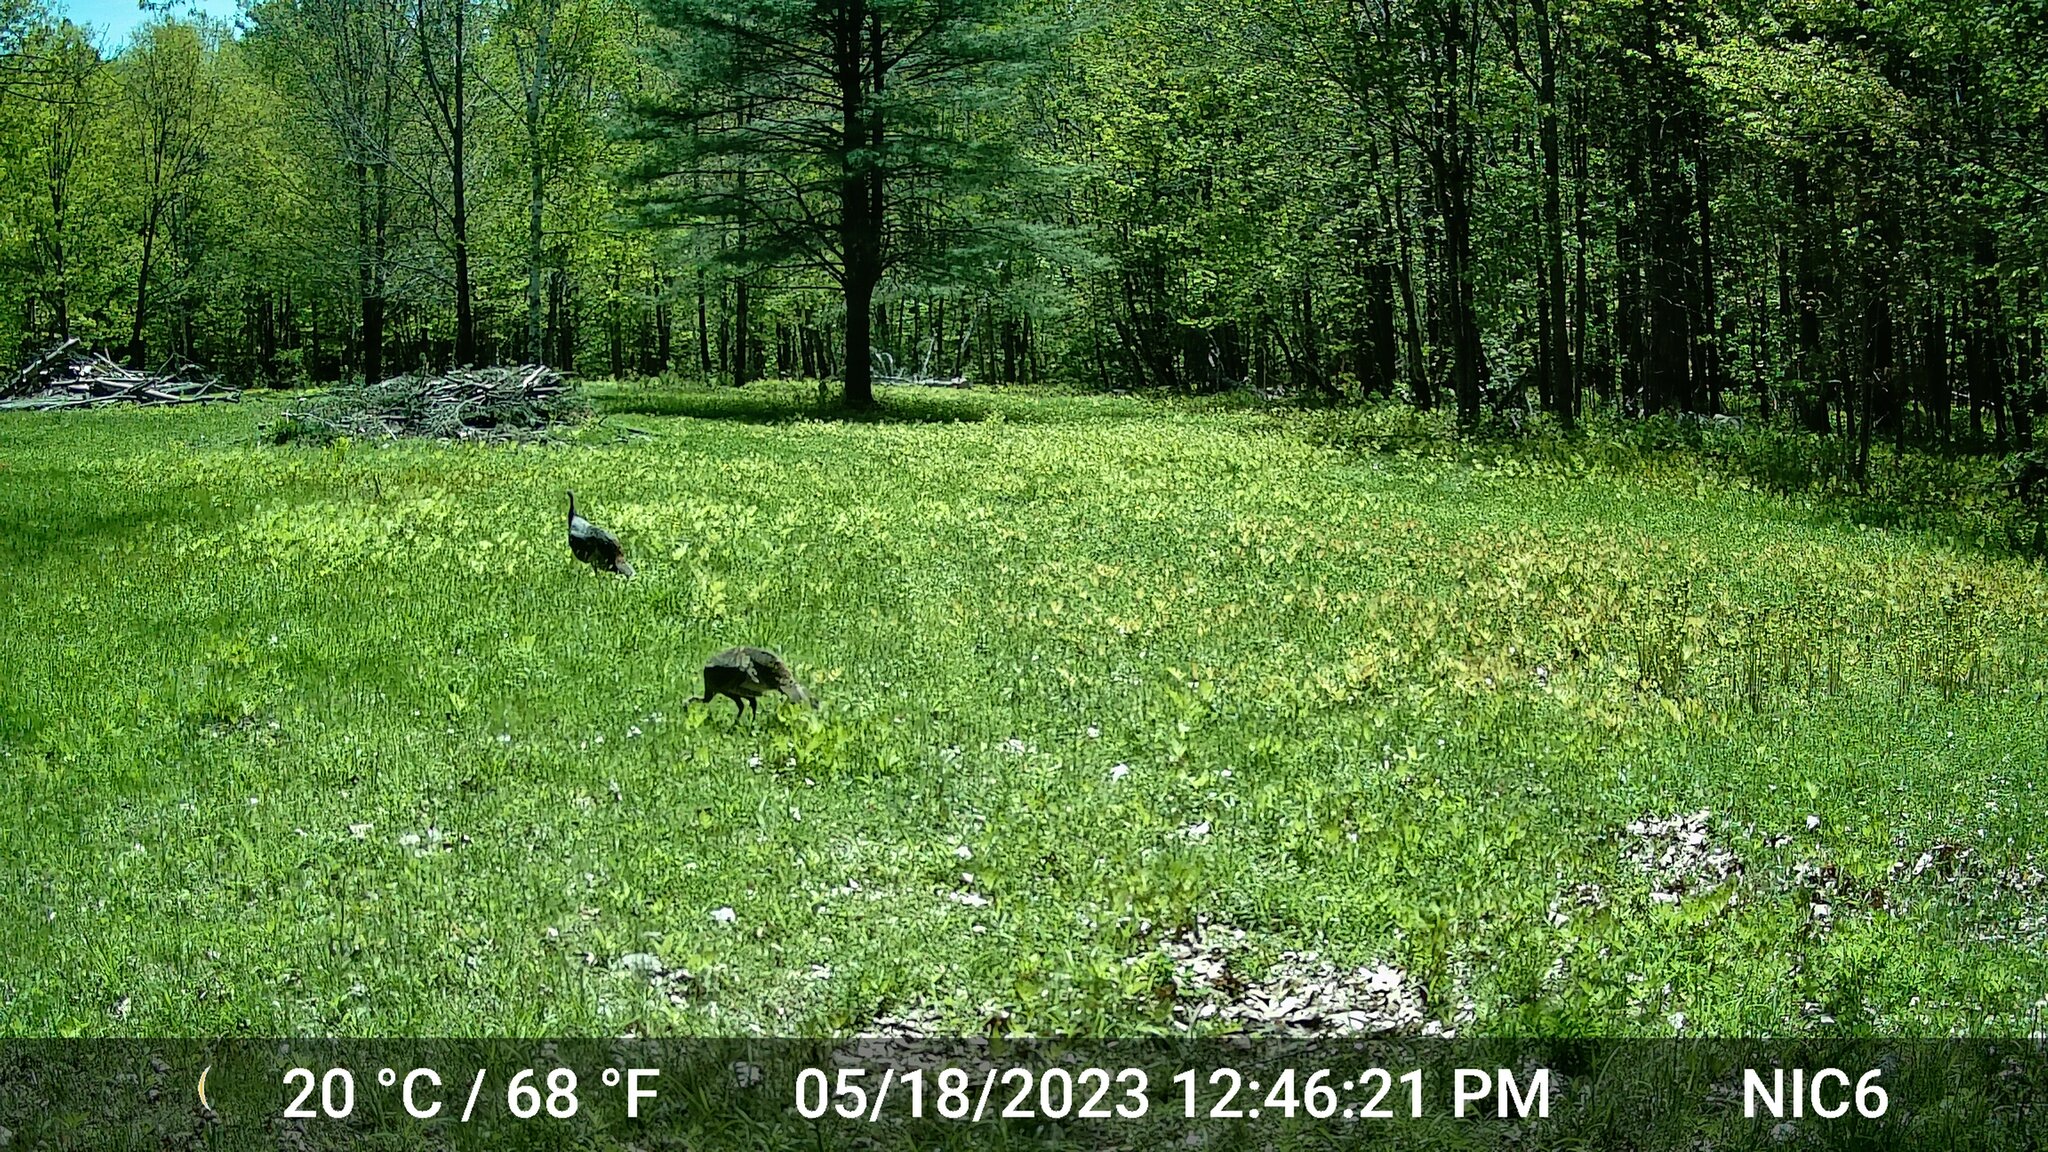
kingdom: Animalia
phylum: Chordata
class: Aves
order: Galliformes
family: Phasianidae
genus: Meleagris
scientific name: Meleagris gallopavo
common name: Wild turkey
